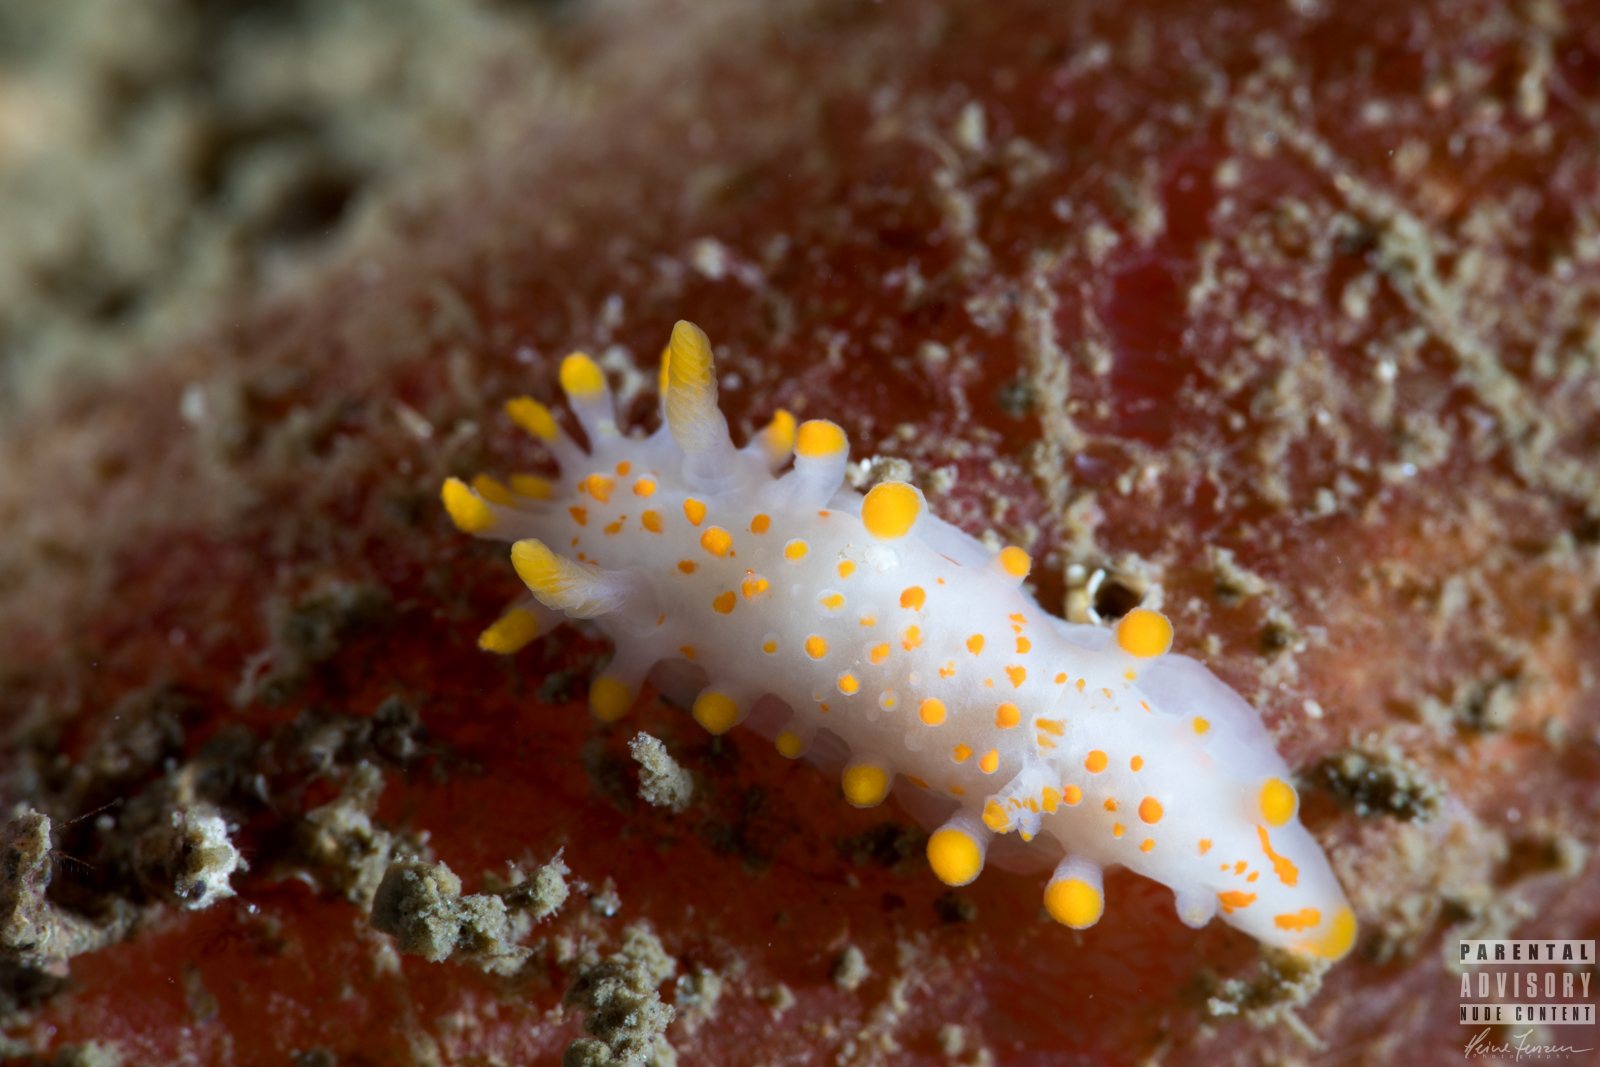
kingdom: Animalia
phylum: Mollusca
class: Gastropoda
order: Nudibranchia
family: Polyceridae
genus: Limacia
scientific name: Limacia clavigera
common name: Orange-clubbed sea slug
